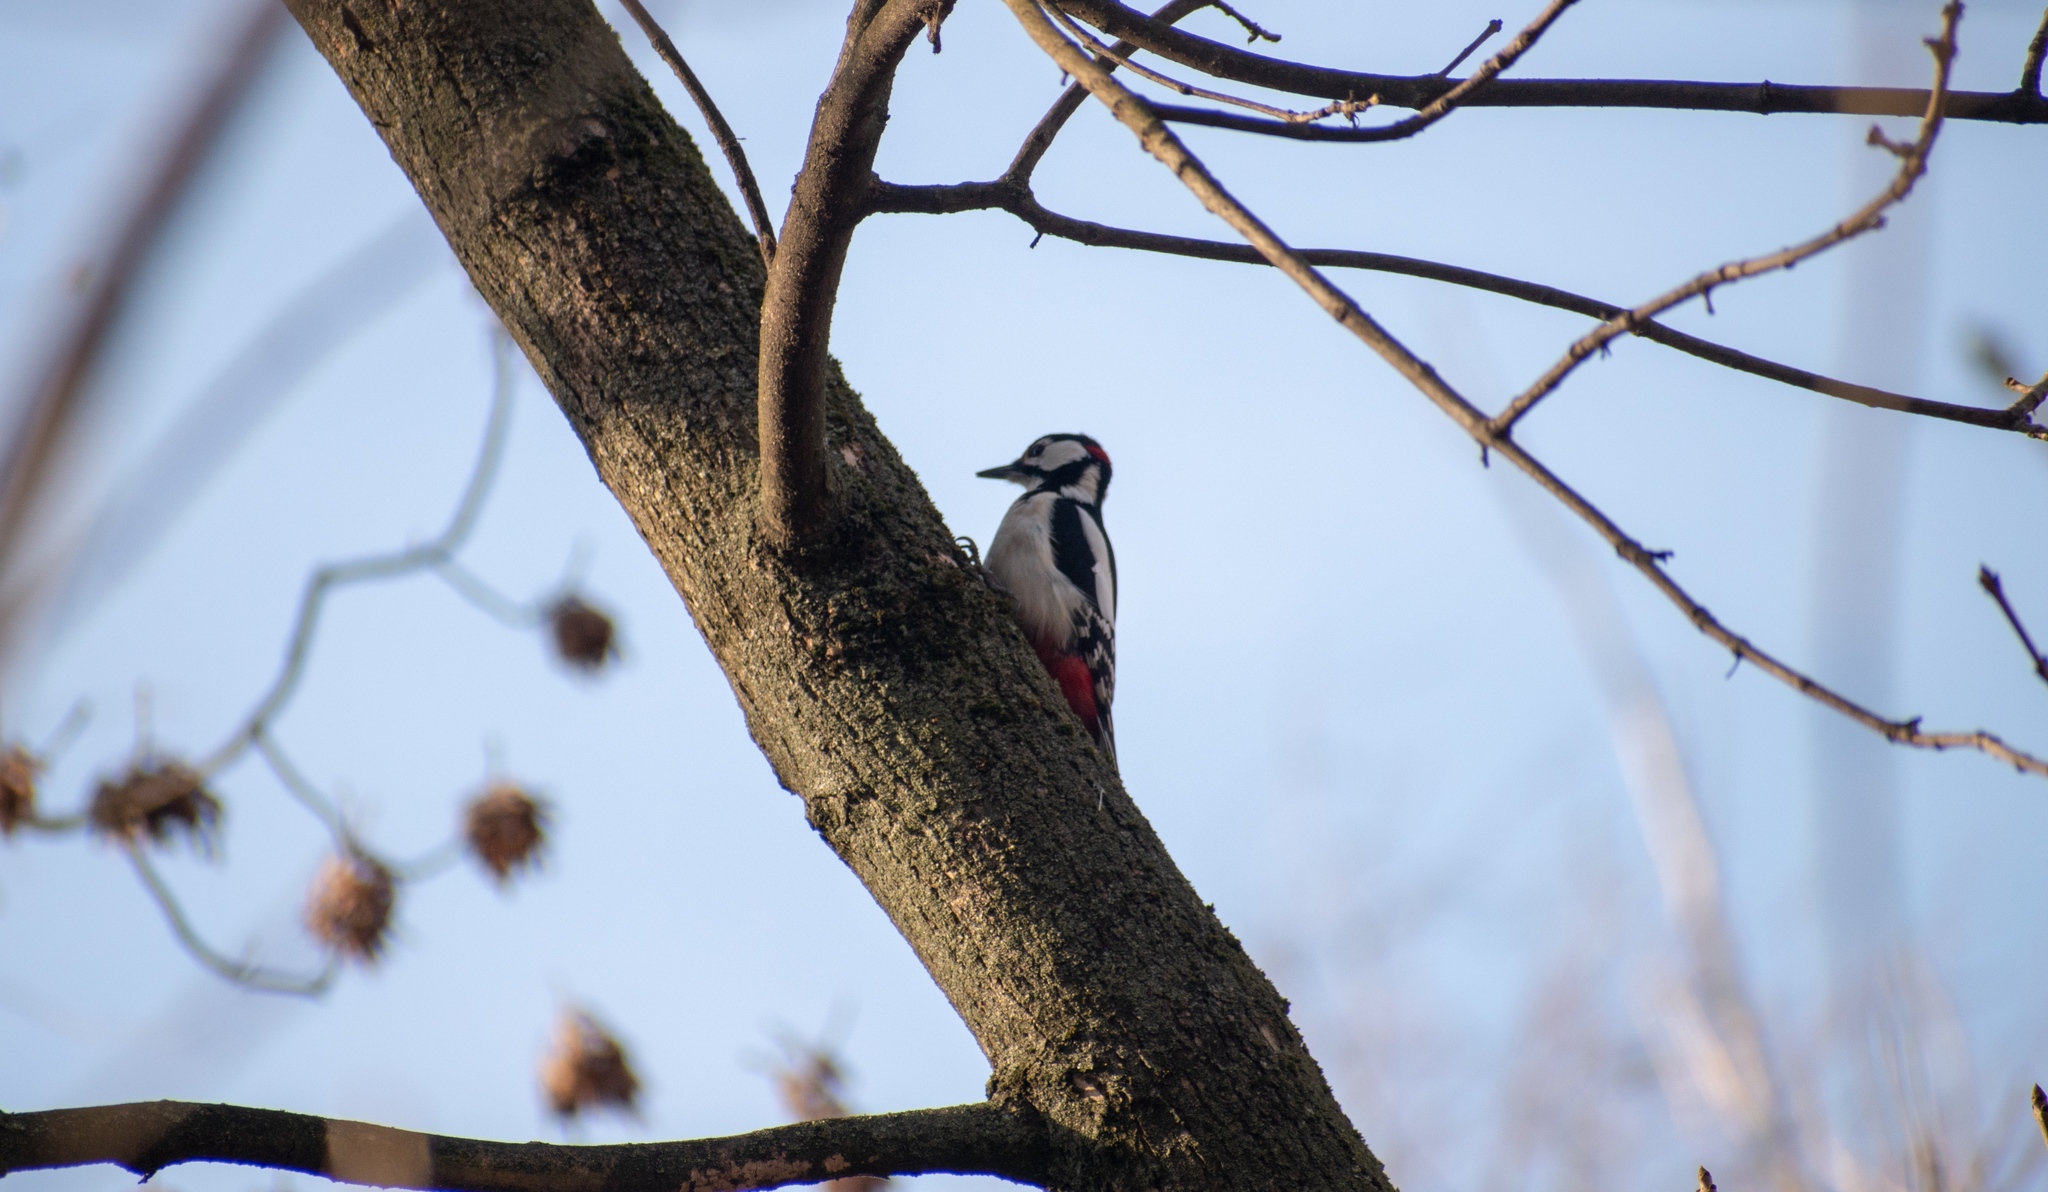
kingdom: Animalia
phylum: Chordata
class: Aves
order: Piciformes
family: Picidae
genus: Dendrocopos
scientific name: Dendrocopos major
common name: Great spotted woodpecker
